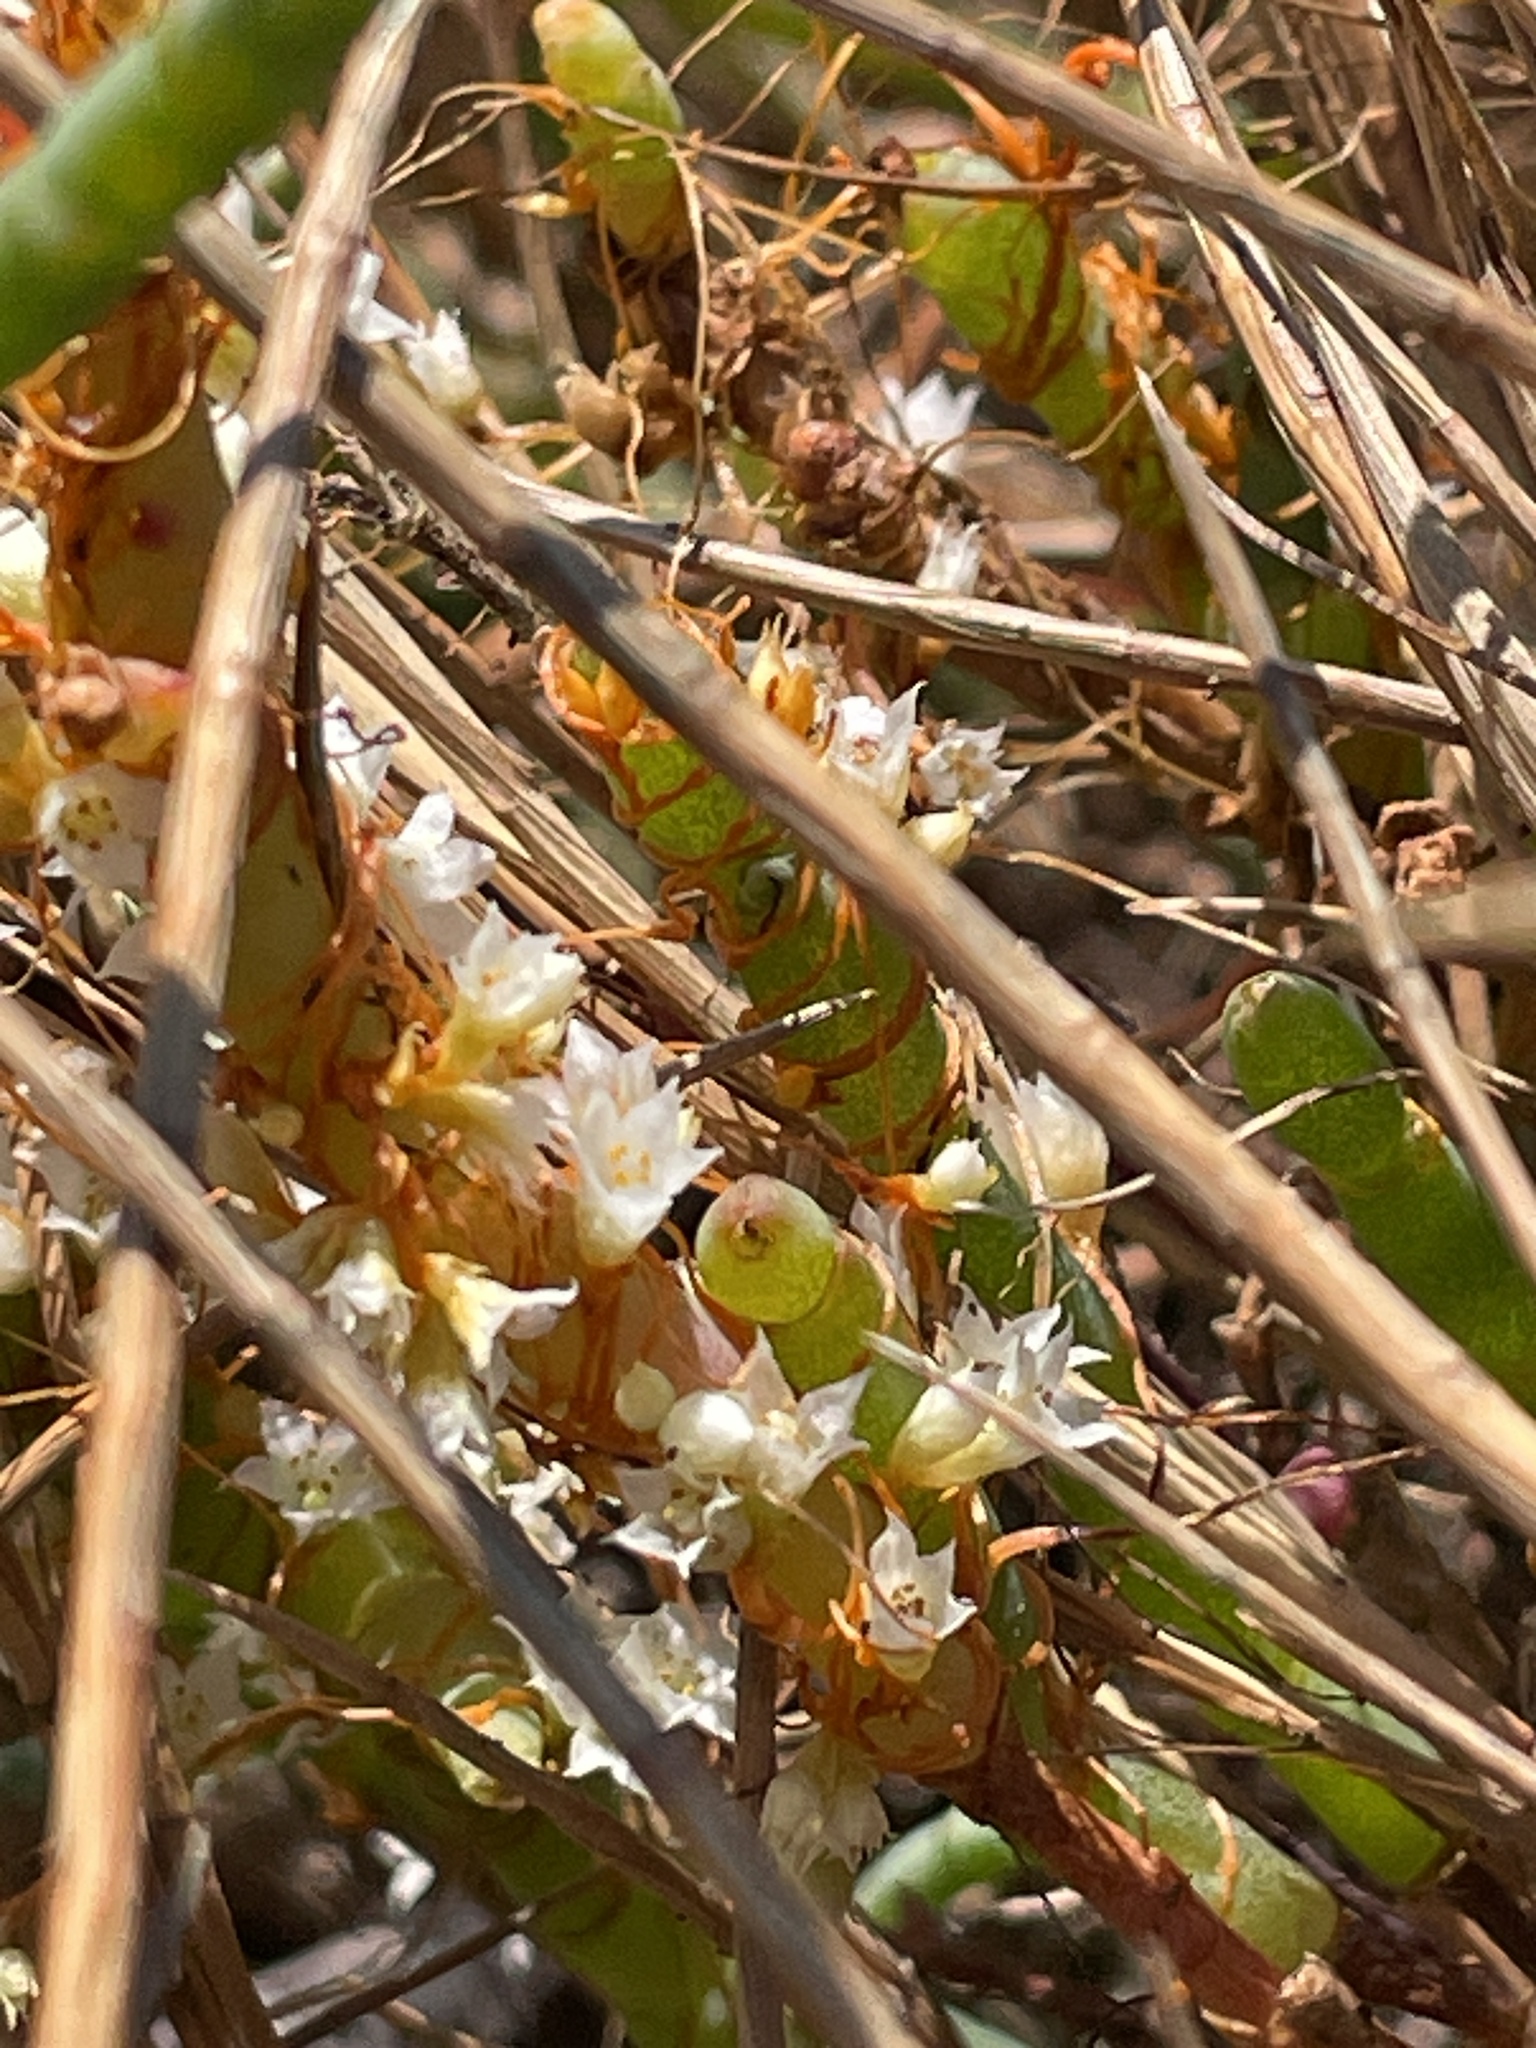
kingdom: Plantae
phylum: Tracheophyta
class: Magnoliopsida
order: Solanales
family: Convolvulaceae
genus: Cuscuta
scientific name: Cuscuta pacifica
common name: Large saltmarsh dodder
